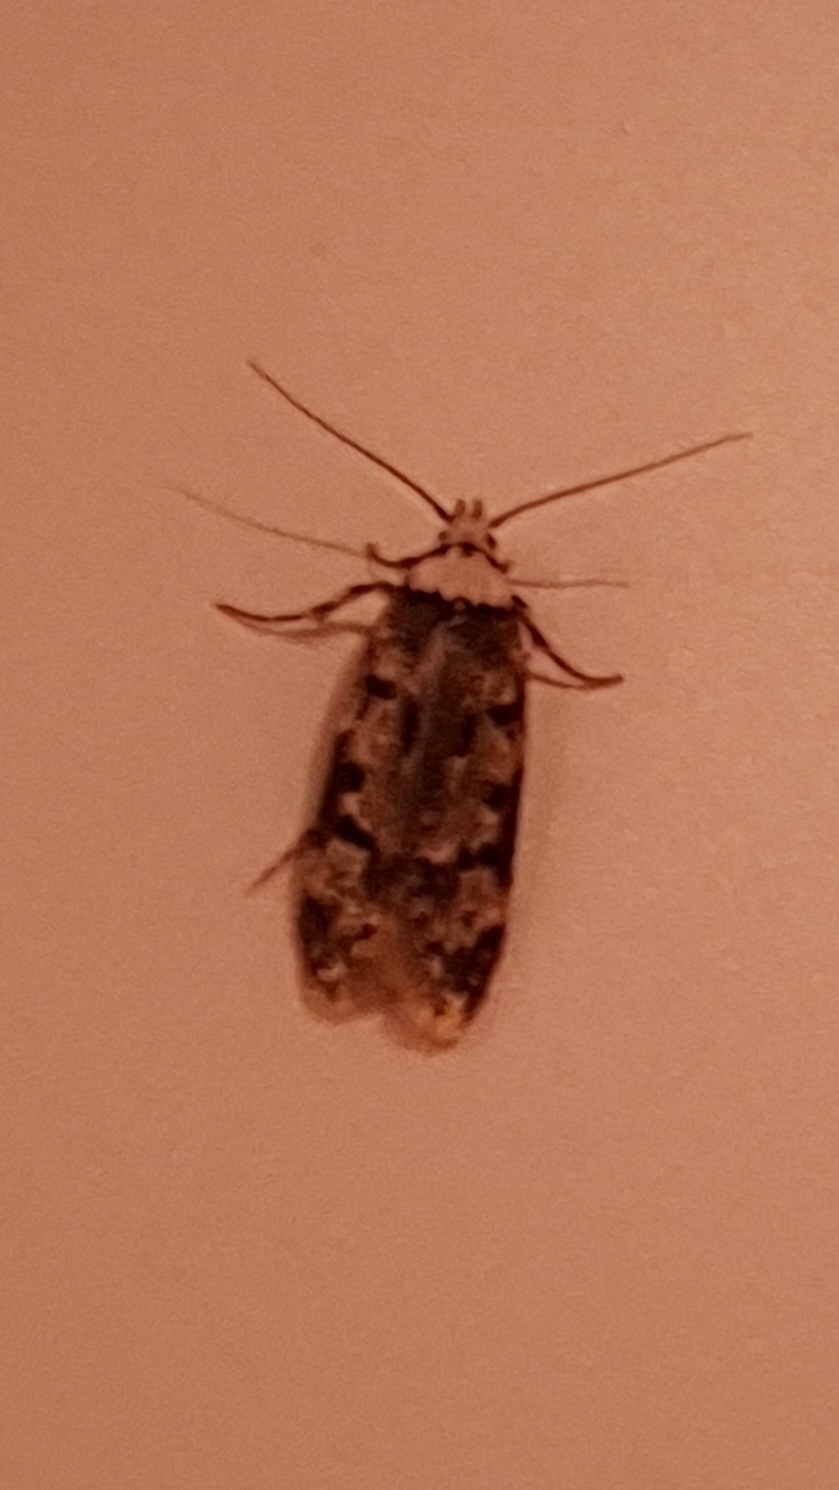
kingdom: Animalia
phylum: Arthropoda
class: Insecta
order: Lepidoptera
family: Oecophoridae
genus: Endrosis
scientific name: Endrosis sarcitrella
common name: White-shouldered house moth
